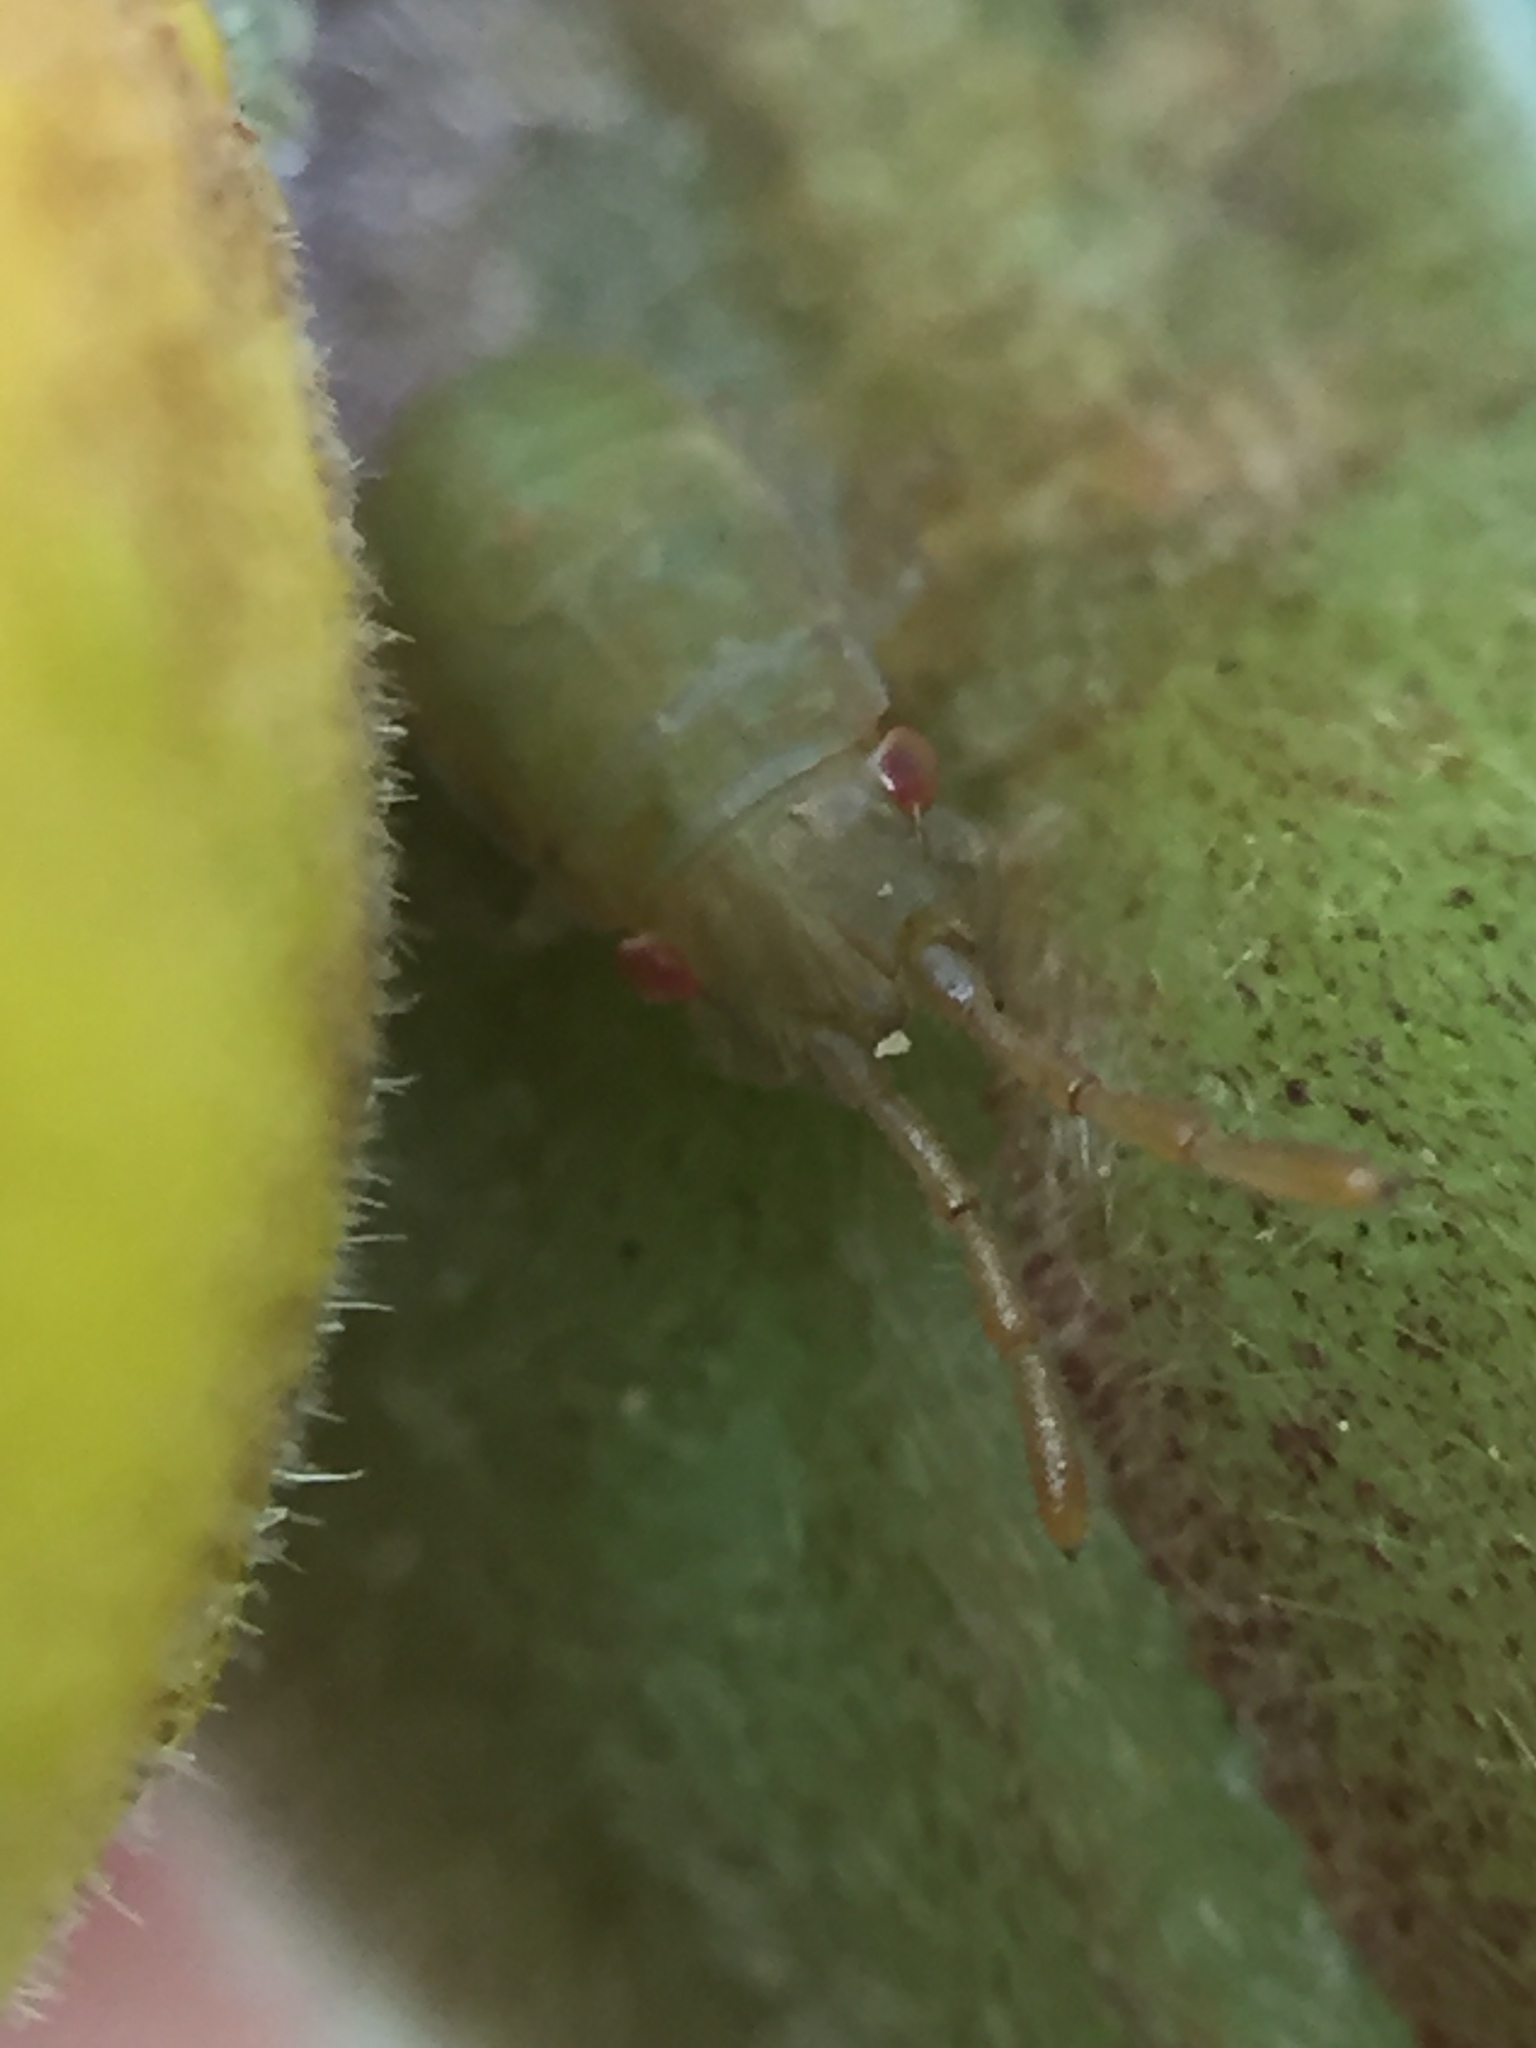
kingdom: Animalia
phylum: Arthropoda
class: Insecta
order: Hemiptera
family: Meschiidae
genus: Meschia
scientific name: Meschia barrowensis
